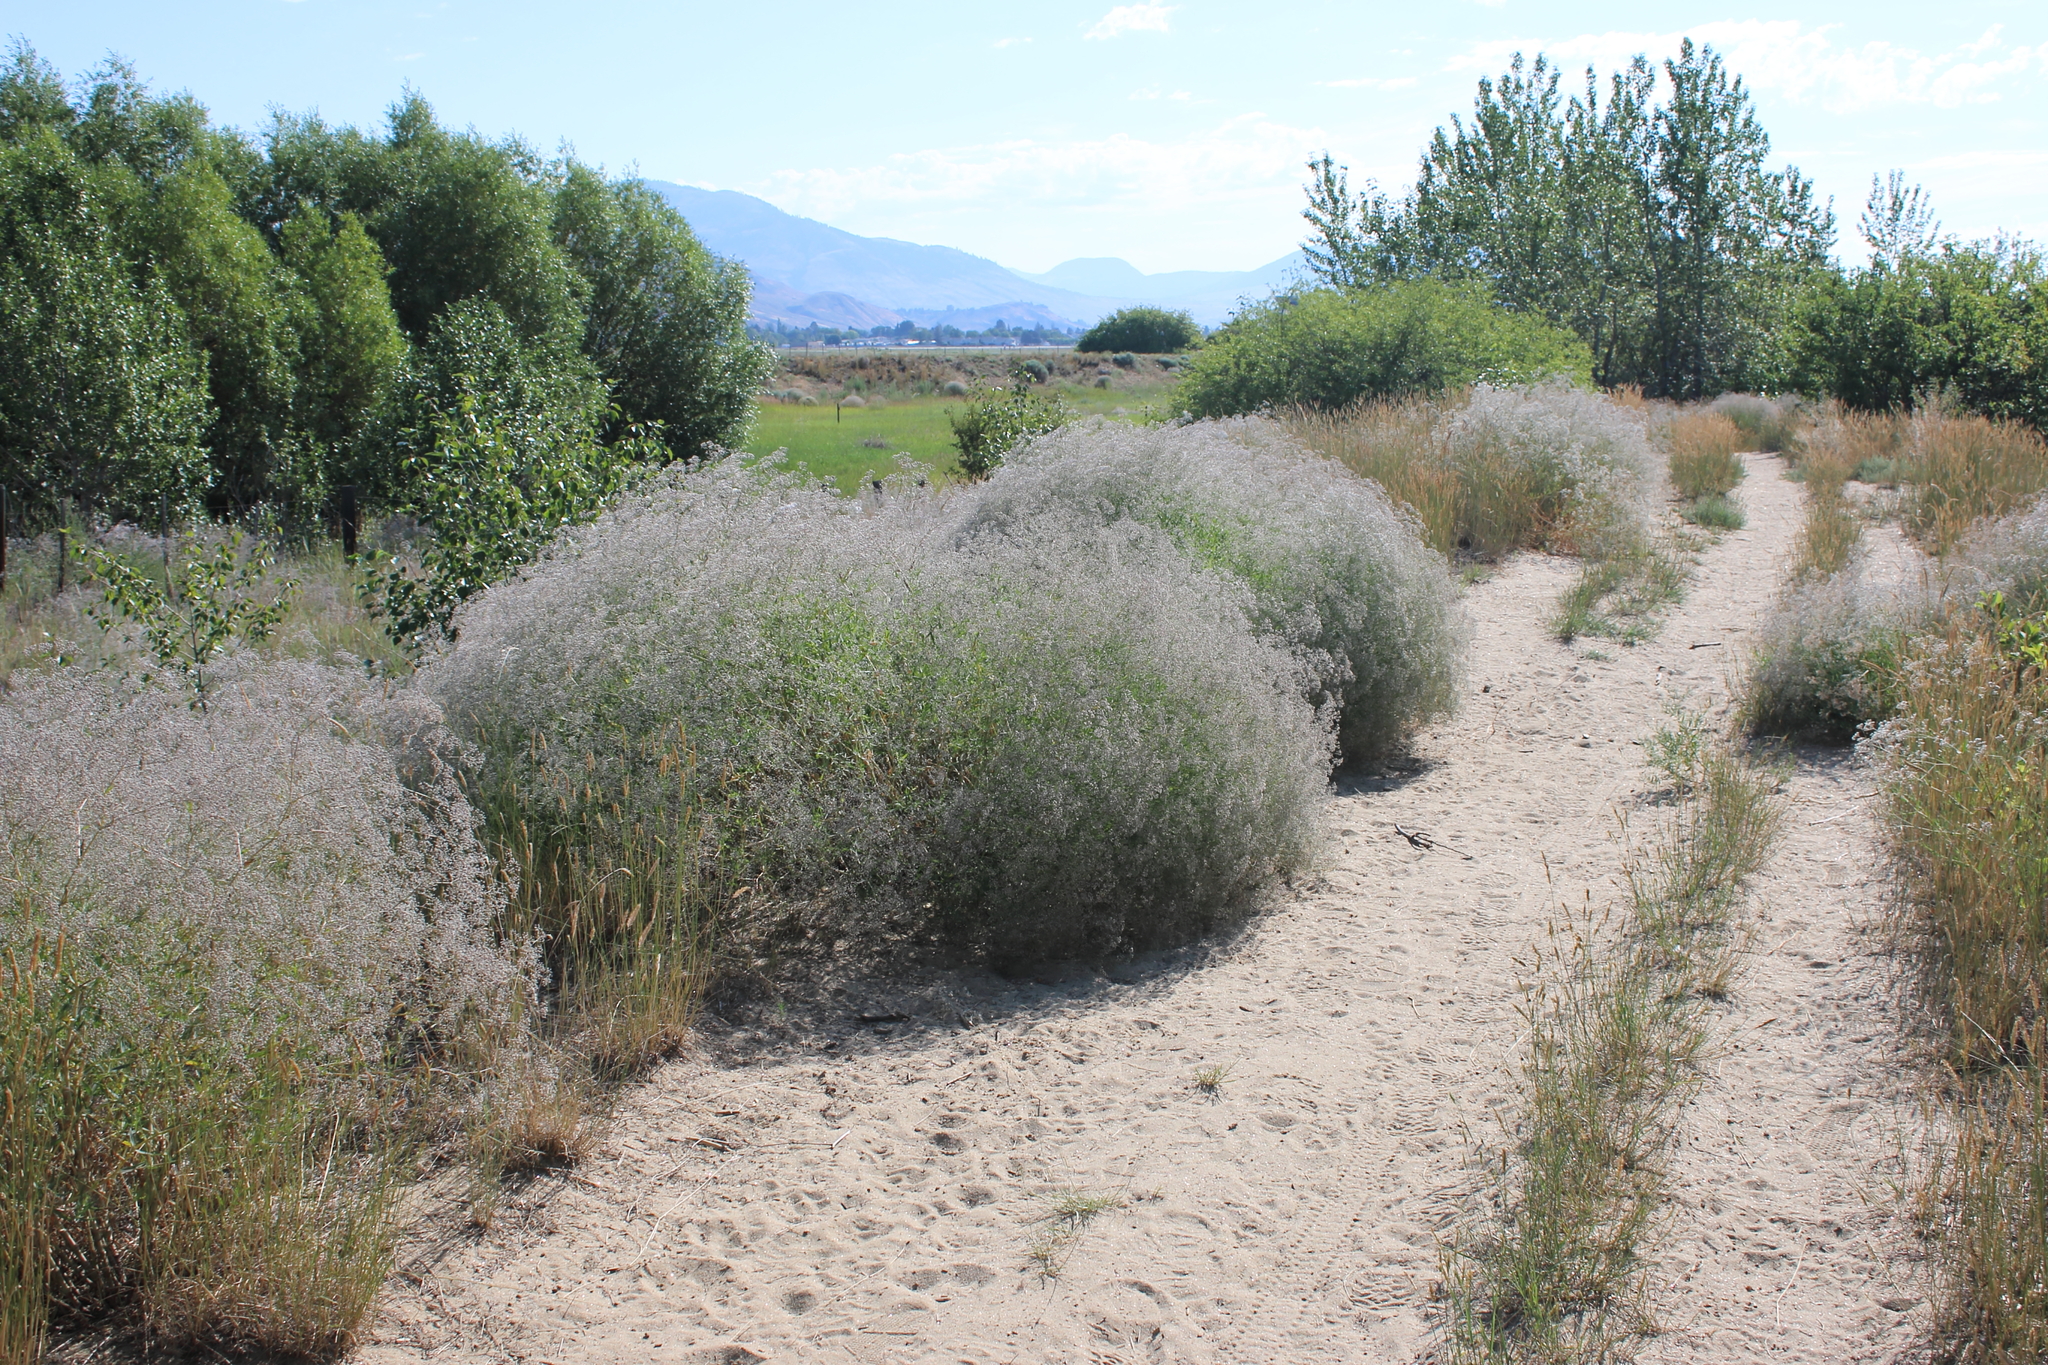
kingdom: Plantae
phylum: Tracheophyta
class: Magnoliopsida
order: Caryophyllales
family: Caryophyllaceae
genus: Gypsophila
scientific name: Gypsophila paniculata
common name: Baby's-breath
